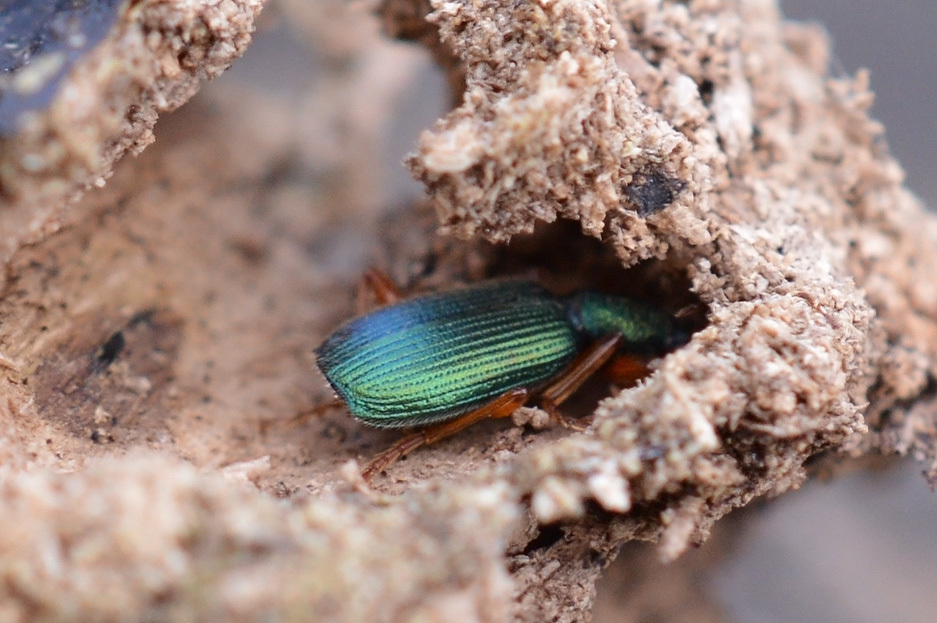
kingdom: Animalia
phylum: Arthropoda
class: Insecta
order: Coleoptera
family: Carabidae
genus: Drypta
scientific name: Drypta dentata
